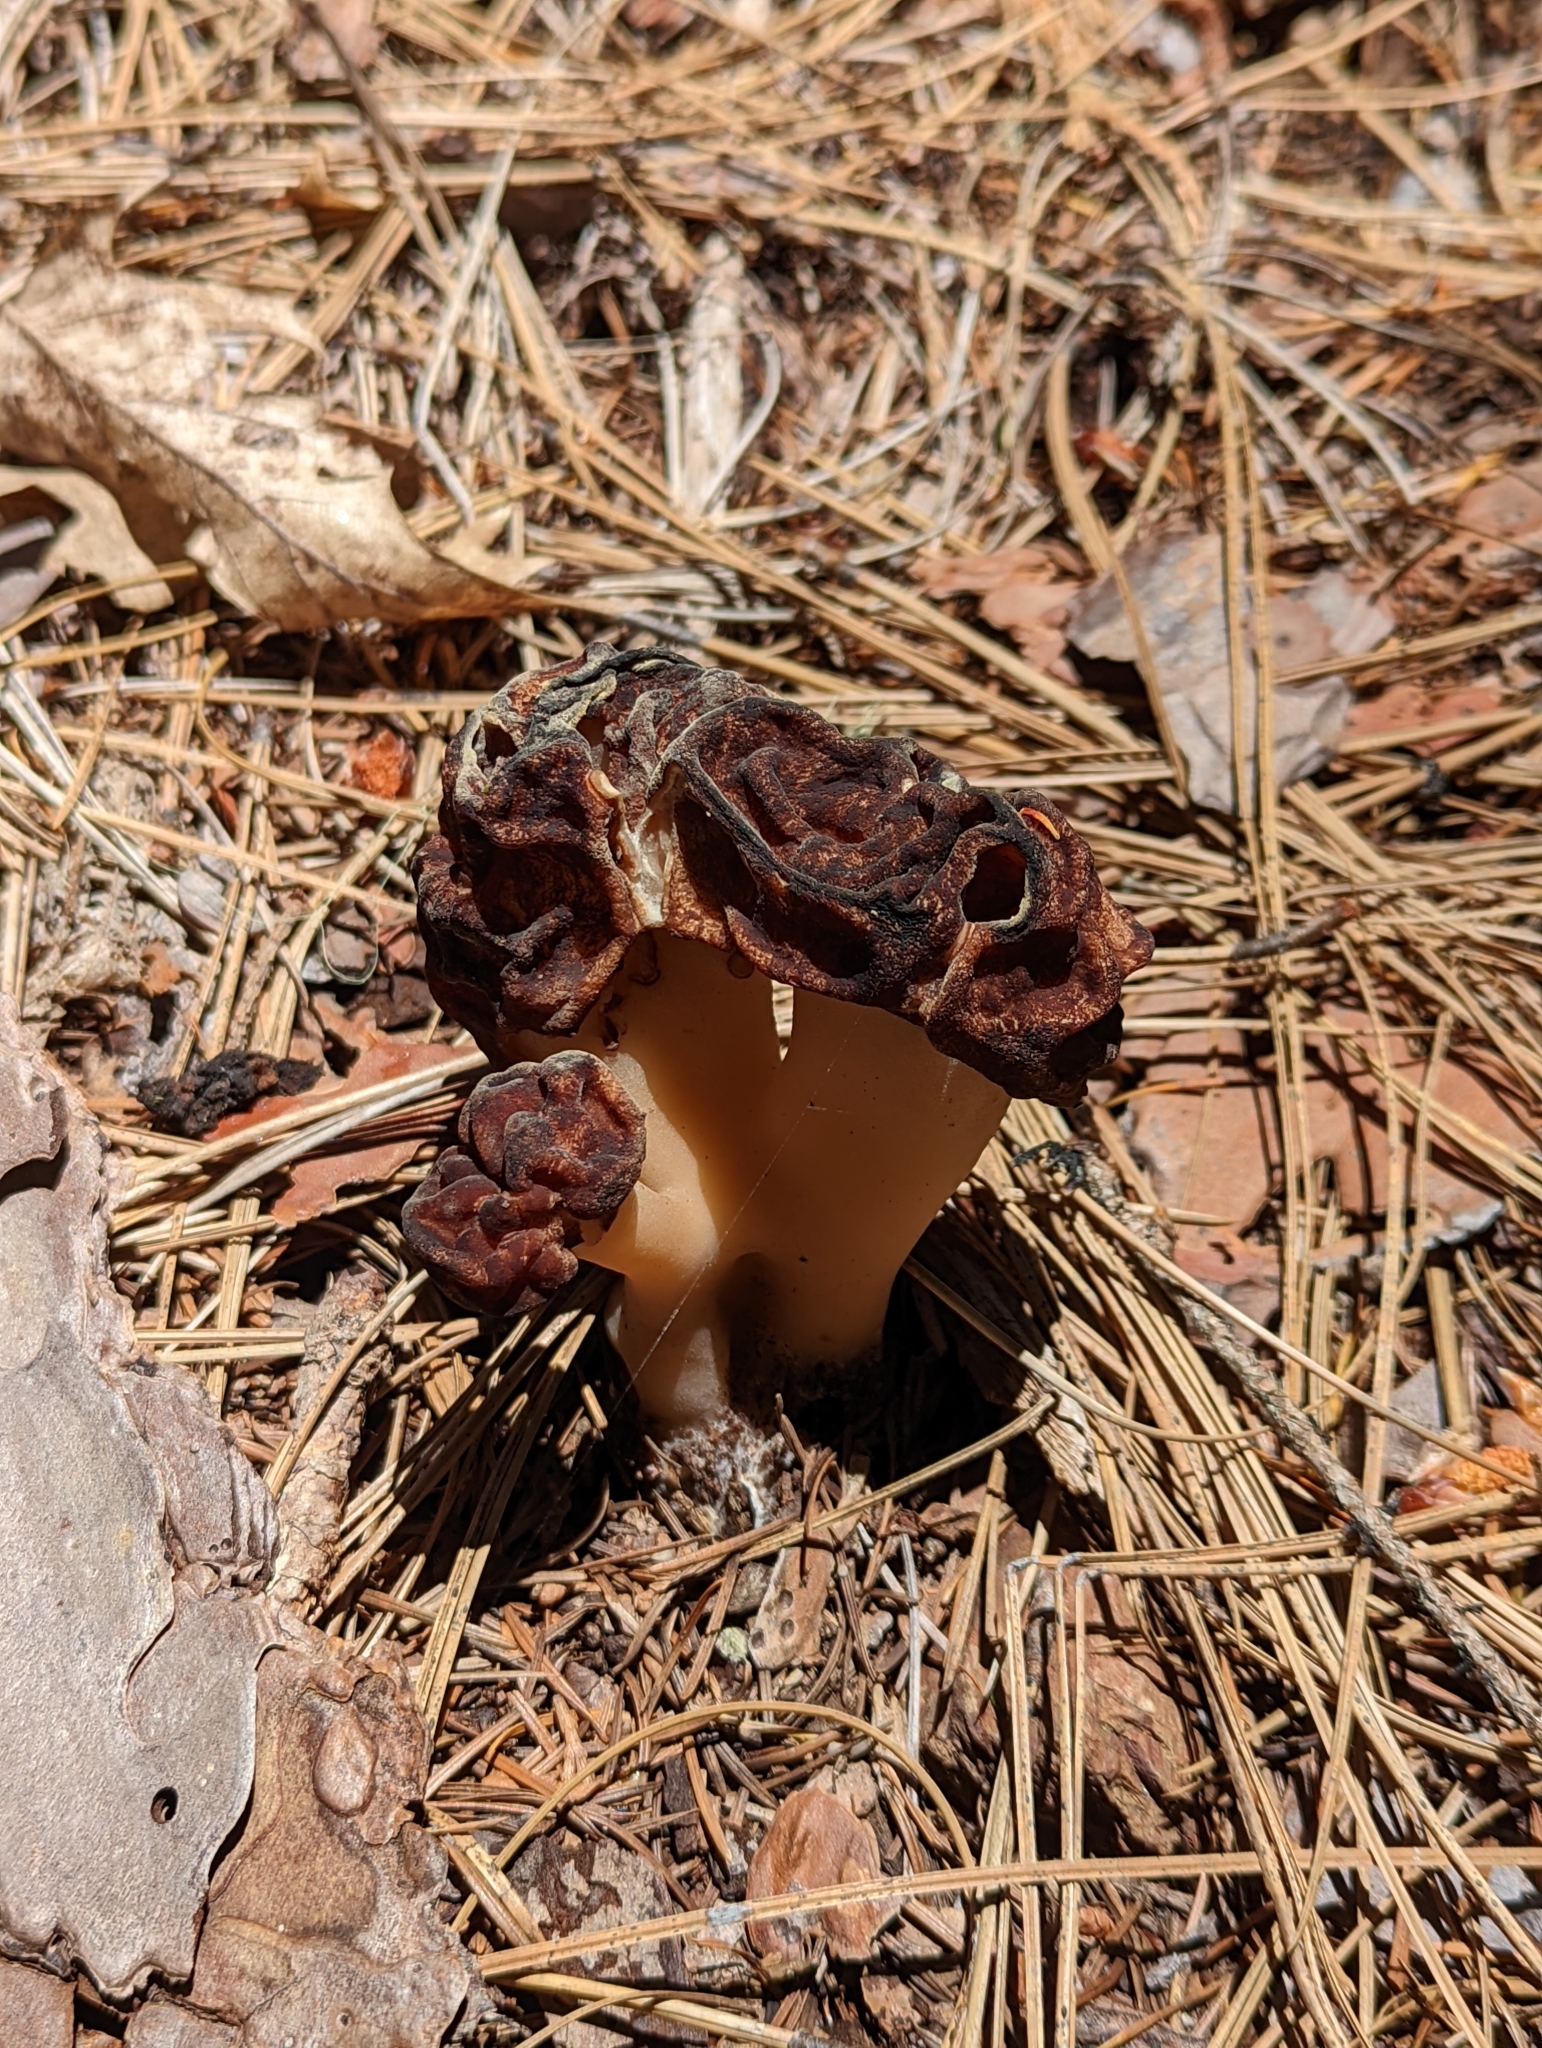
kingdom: Fungi
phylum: Ascomycota
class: Pezizomycetes
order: Pezizales
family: Discinaceae
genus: Gyromitra
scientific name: Gyromitra esculenta
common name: False morel
